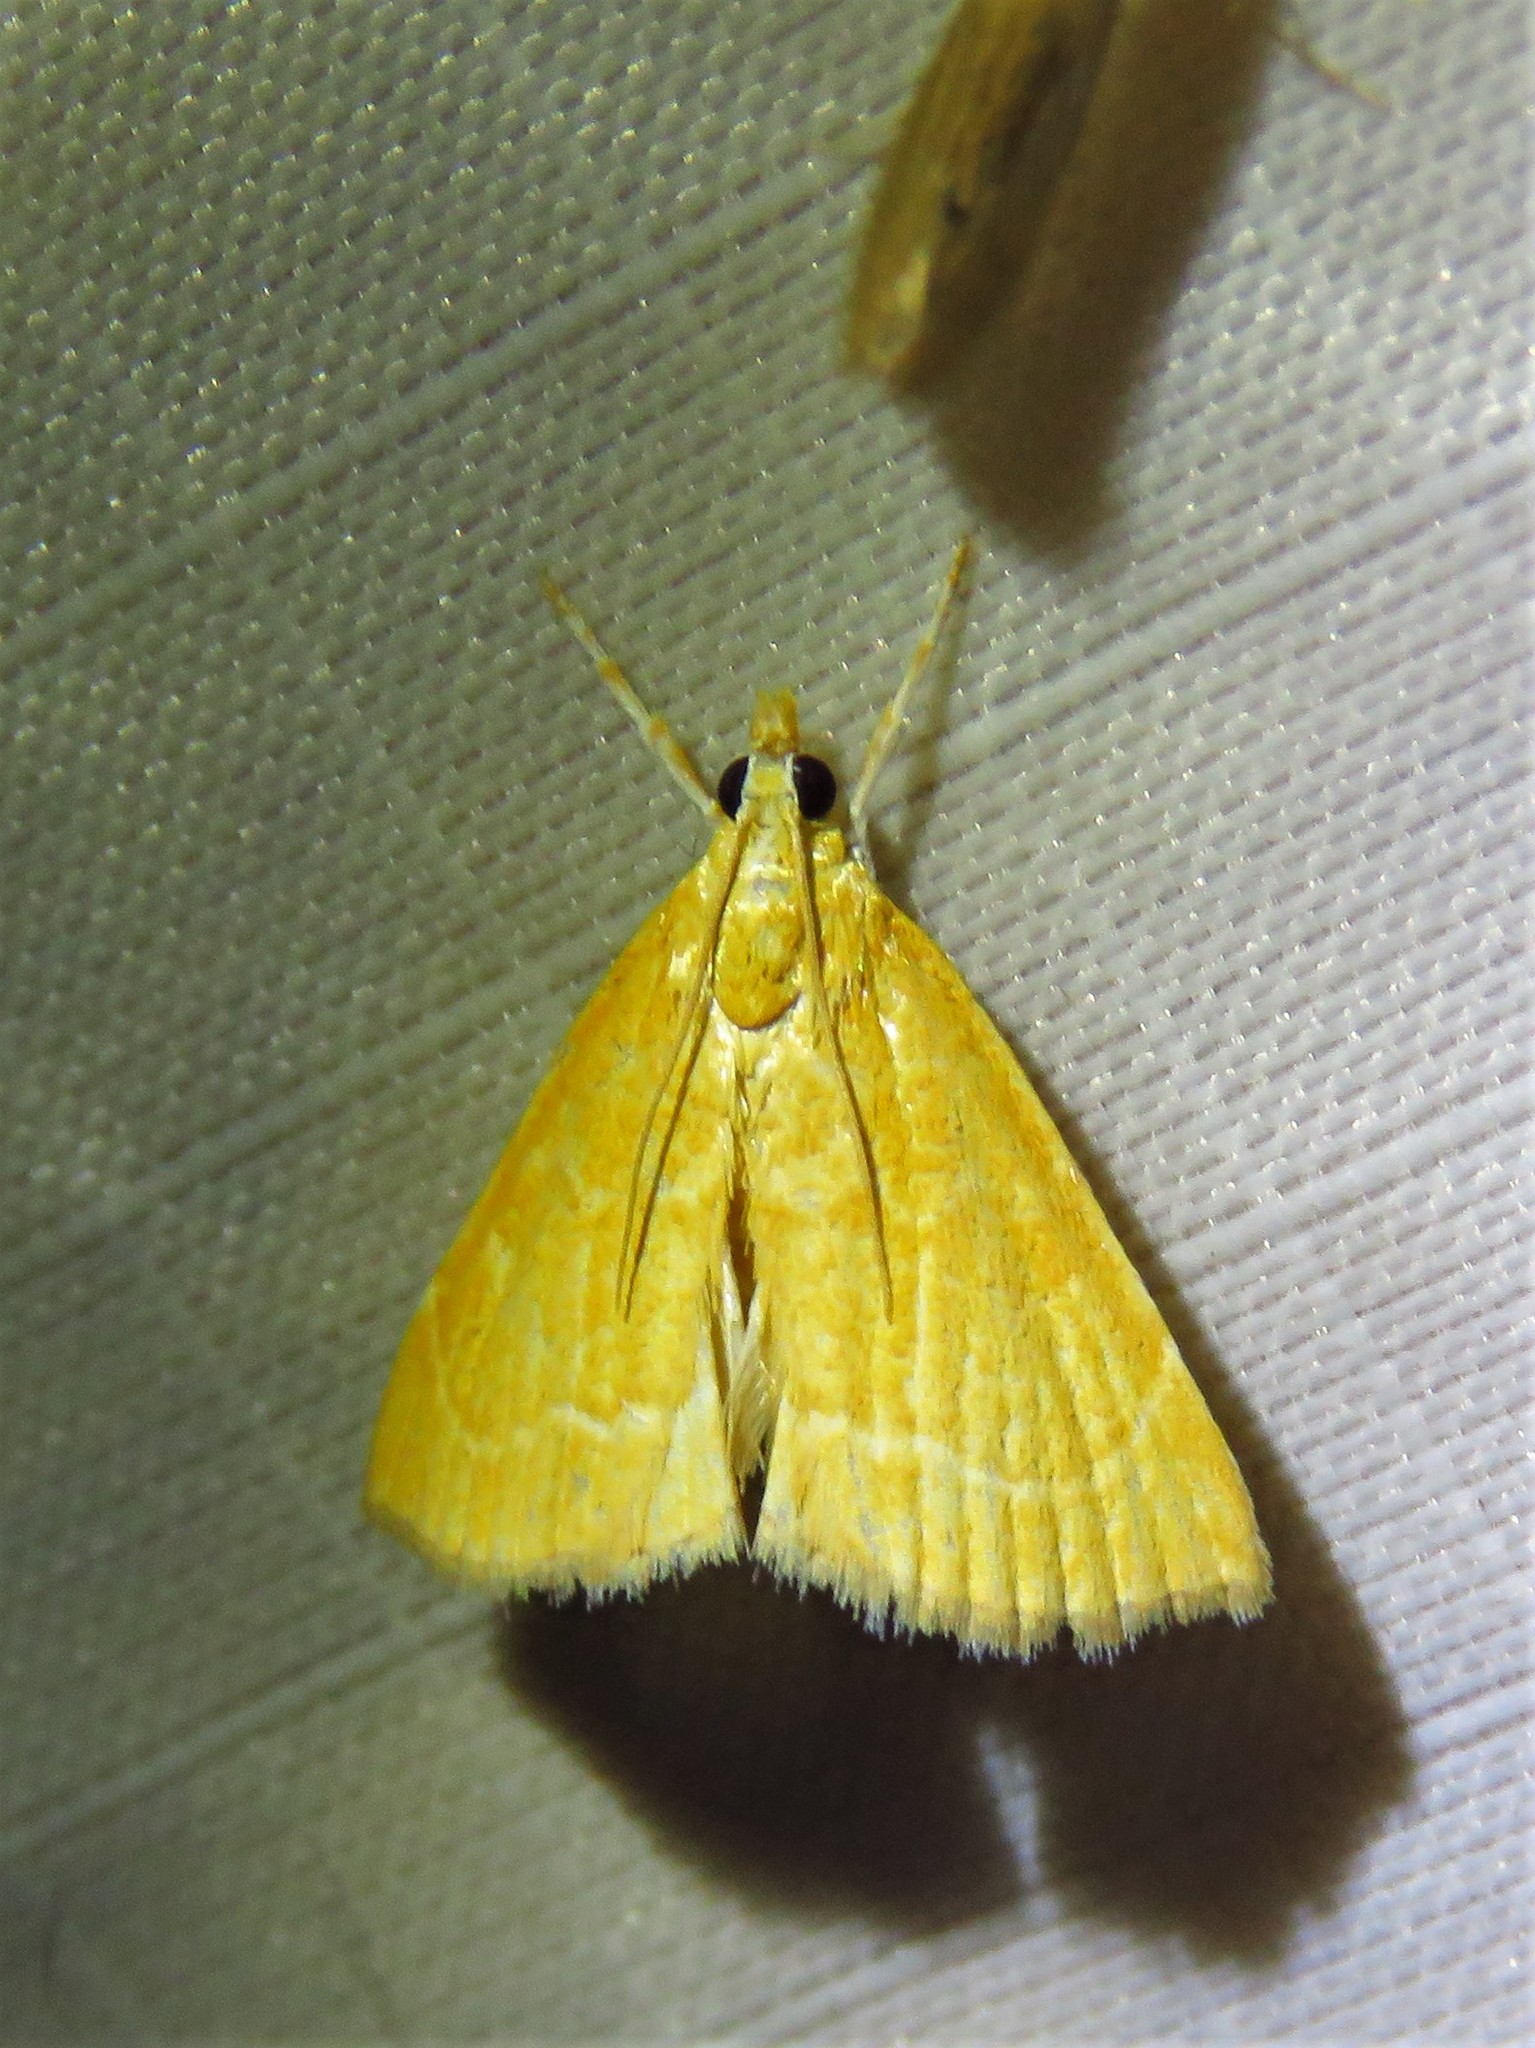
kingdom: Animalia
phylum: Arthropoda
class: Insecta
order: Lepidoptera
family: Crambidae
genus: Glaphyria
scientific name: Glaphyria invisalis
